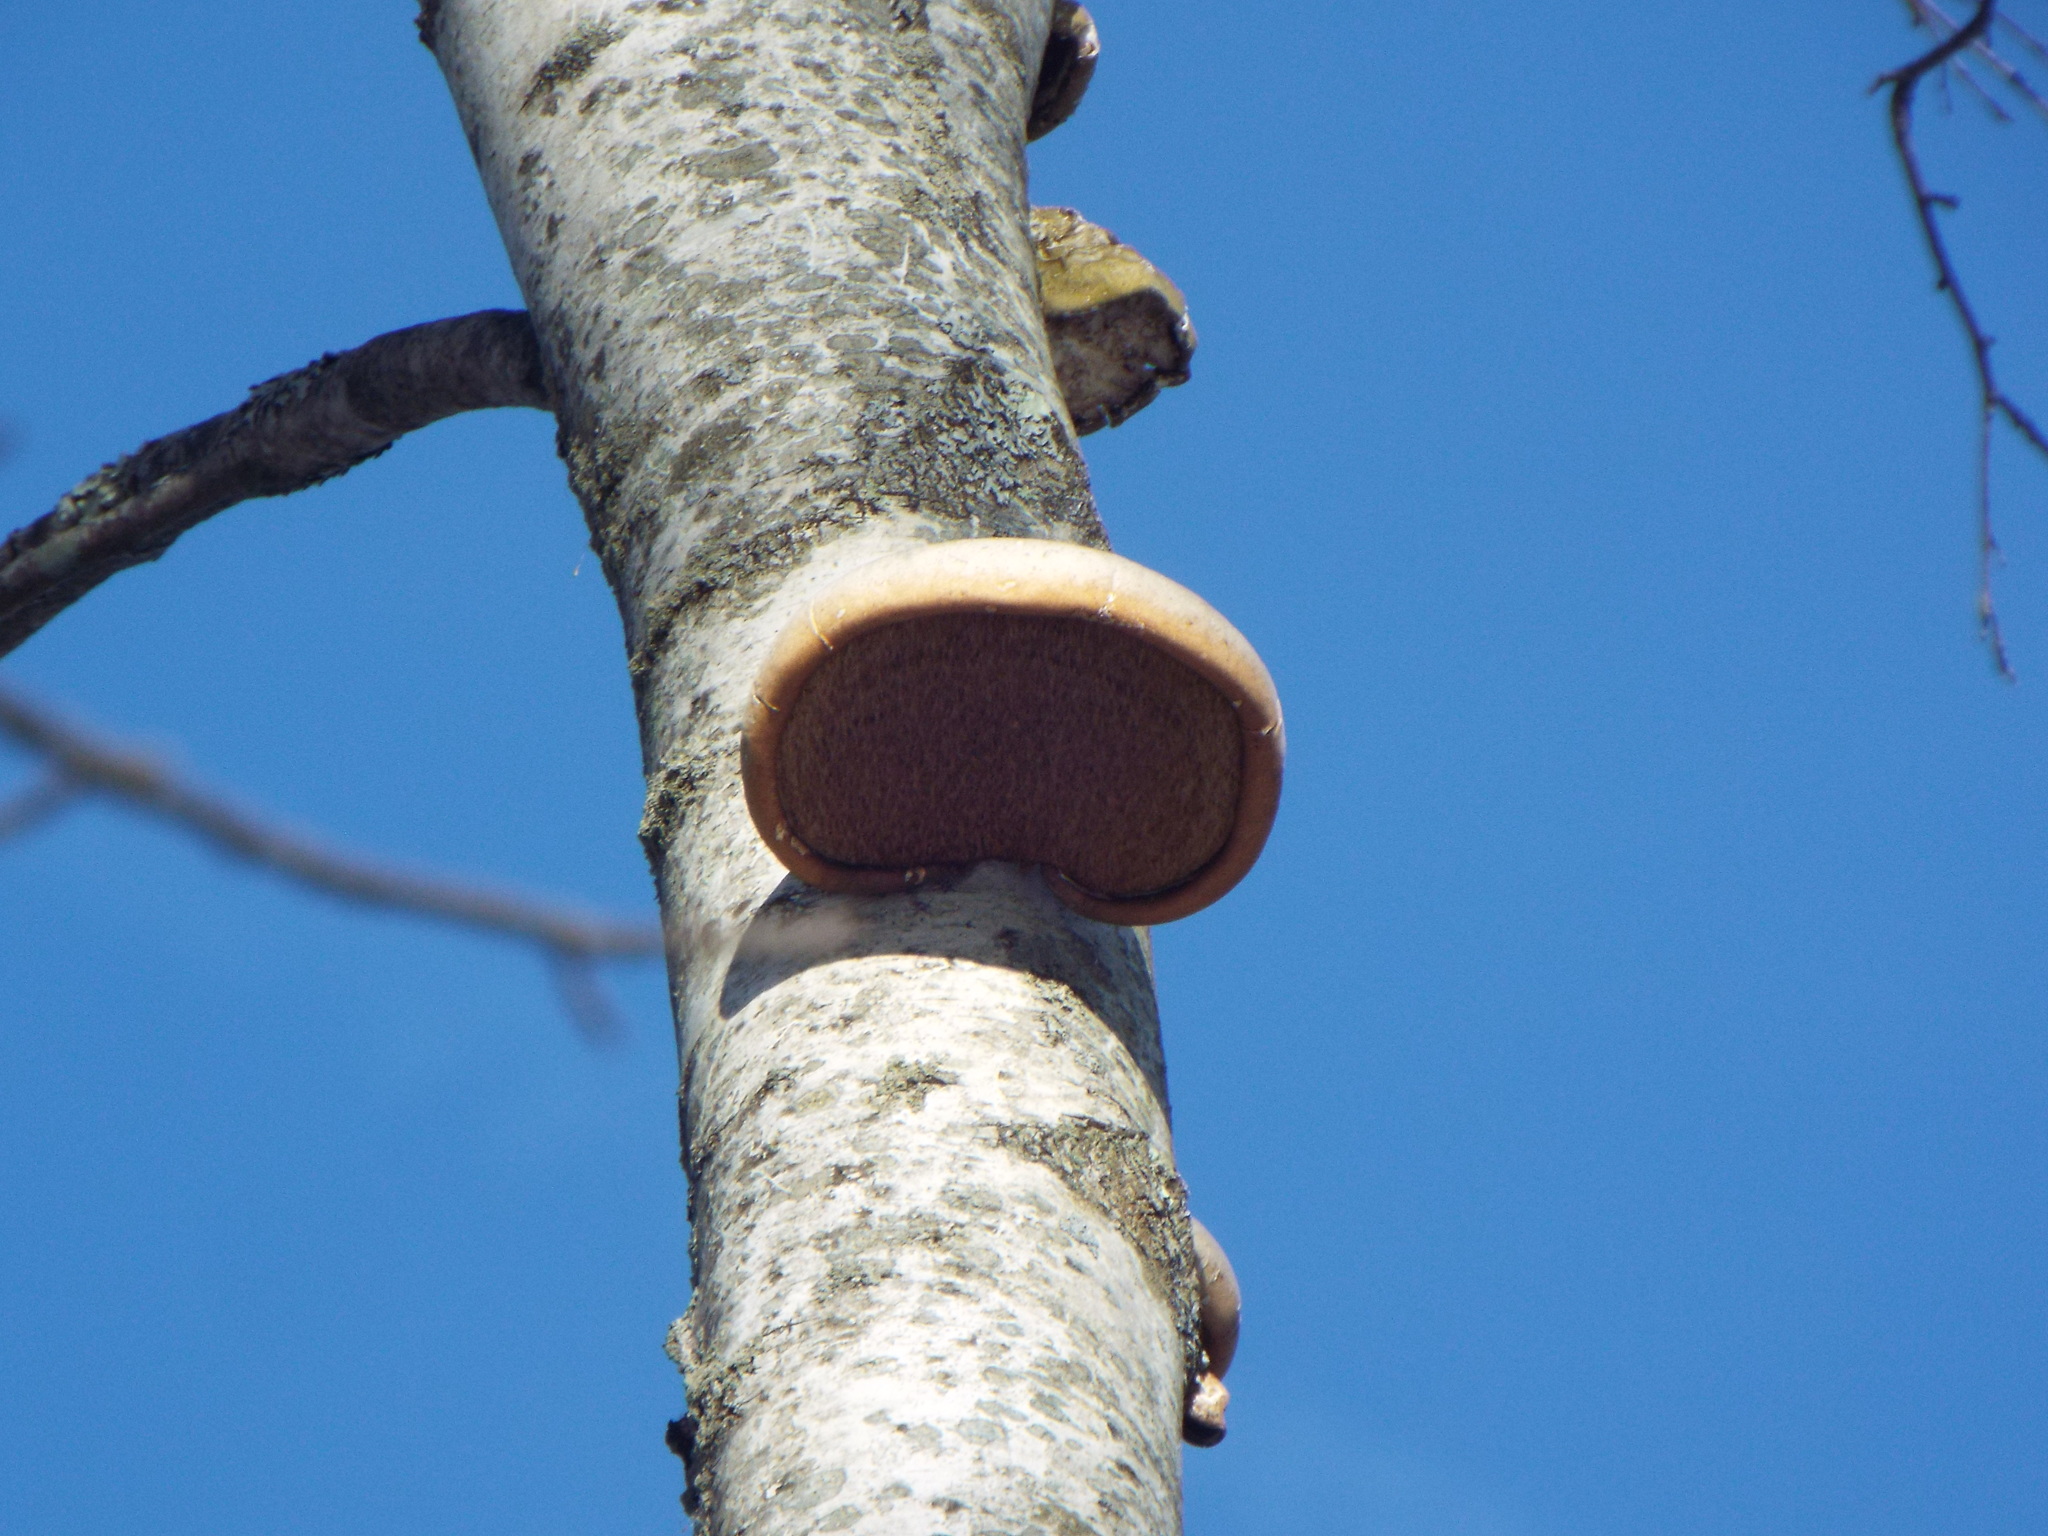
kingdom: Fungi
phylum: Basidiomycota
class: Agaricomycetes
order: Polyporales
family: Fomitopsidaceae
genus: Fomitopsis
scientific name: Fomitopsis betulina
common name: Birch polypore
